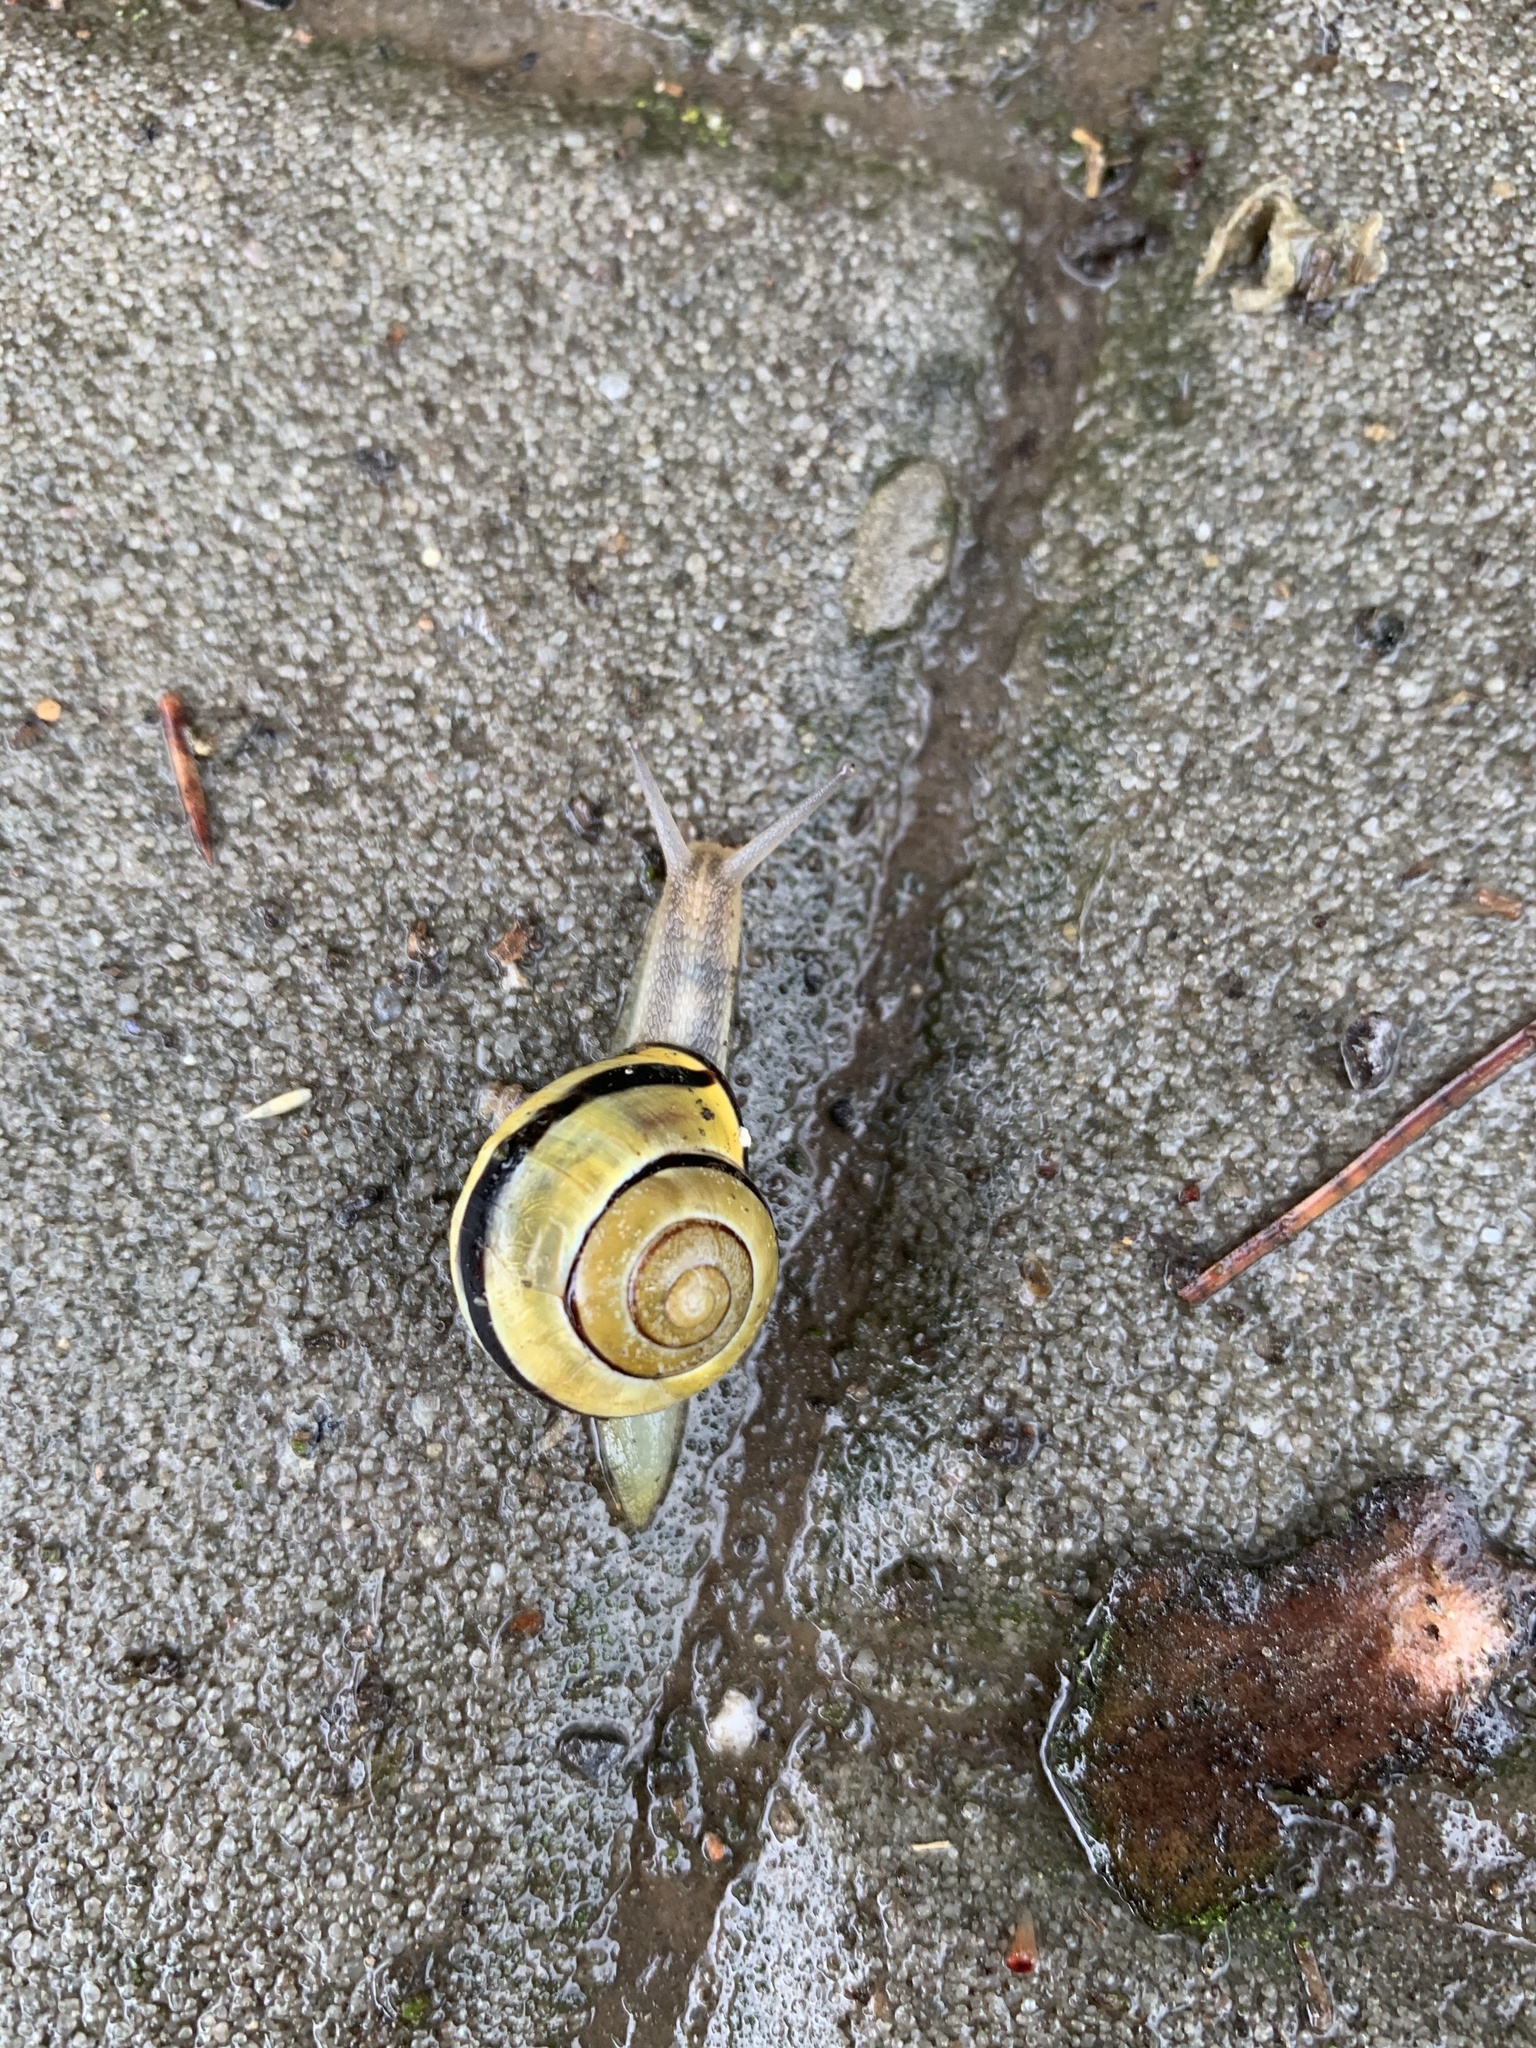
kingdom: Animalia
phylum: Mollusca
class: Gastropoda
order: Stylommatophora
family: Helicidae
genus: Cepaea
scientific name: Cepaea nemoralis
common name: Grovesnail
